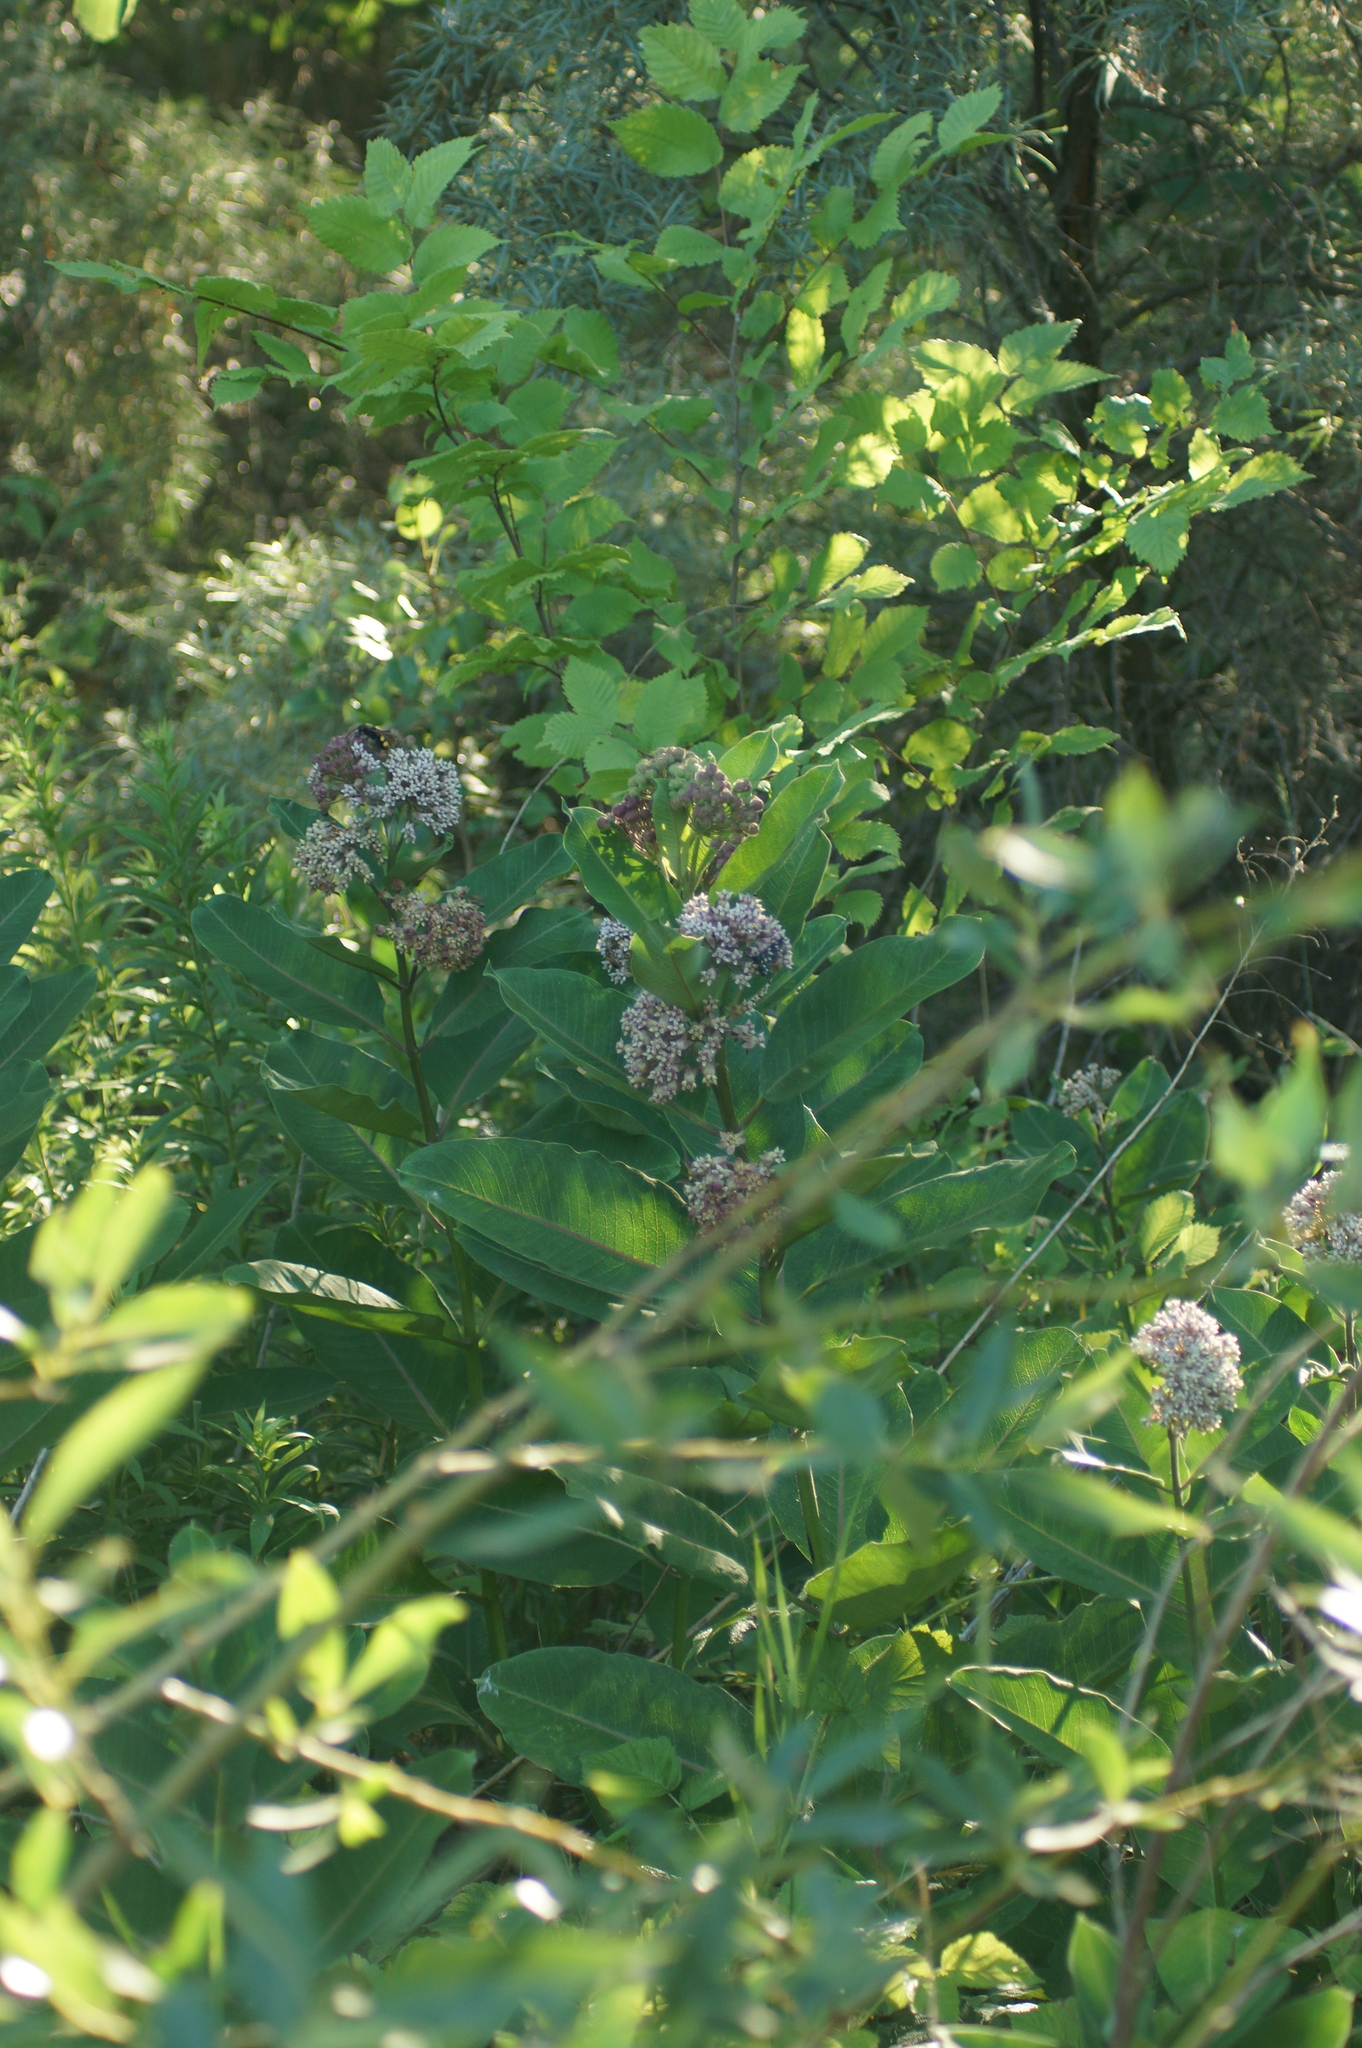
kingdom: Plantae
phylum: Tracheophyta
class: Magnoliopsida
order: Gentianales
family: Apocynaceae
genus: Asclepias
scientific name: Asclepias syriaca
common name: Common milkweed
